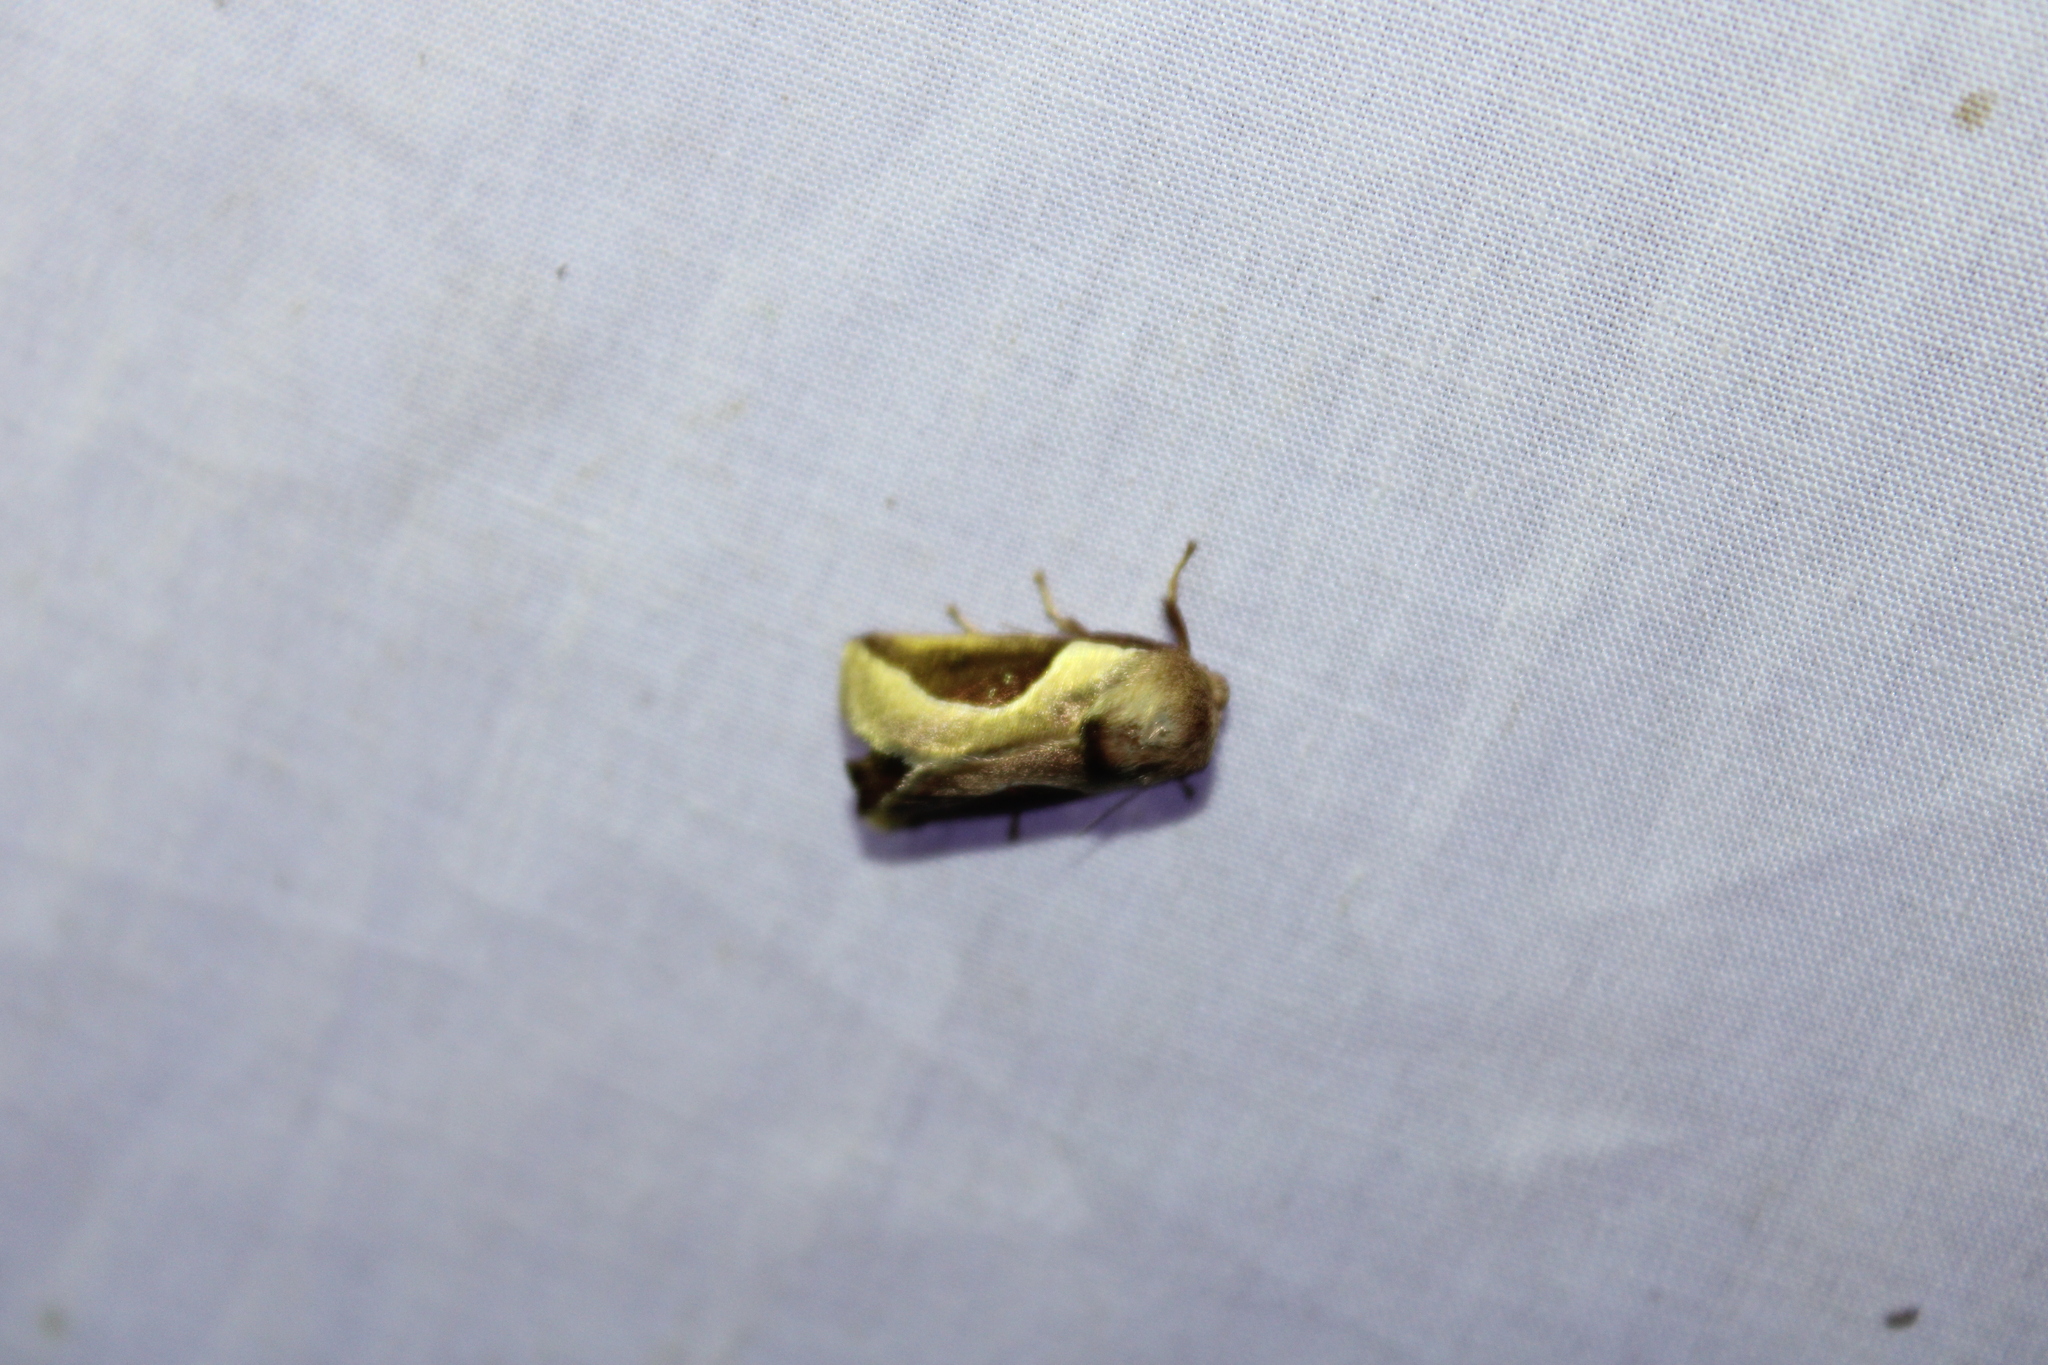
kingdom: Animalia
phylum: Arthropoda
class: Insecta
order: Lepidoptera
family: Limacodidae
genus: Prolimacodes
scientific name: Prolimacodes badia
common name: Skiff moth
